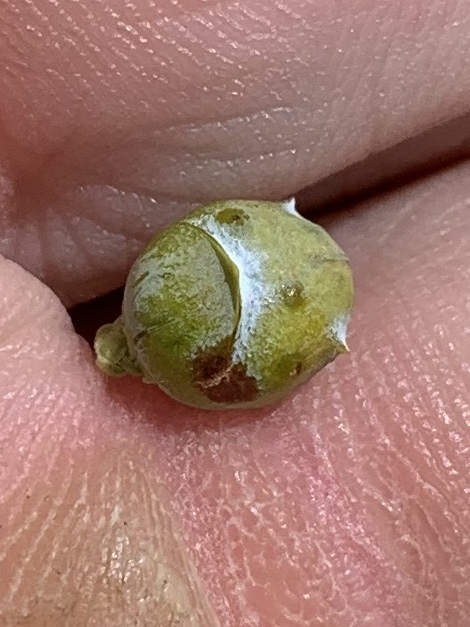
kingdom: Plantae
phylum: Tracheophyta
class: Pinopsida
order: Pinales
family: Cupressaceae
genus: Juniperus
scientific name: Juniperus monosperma
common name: One-seed juniper
